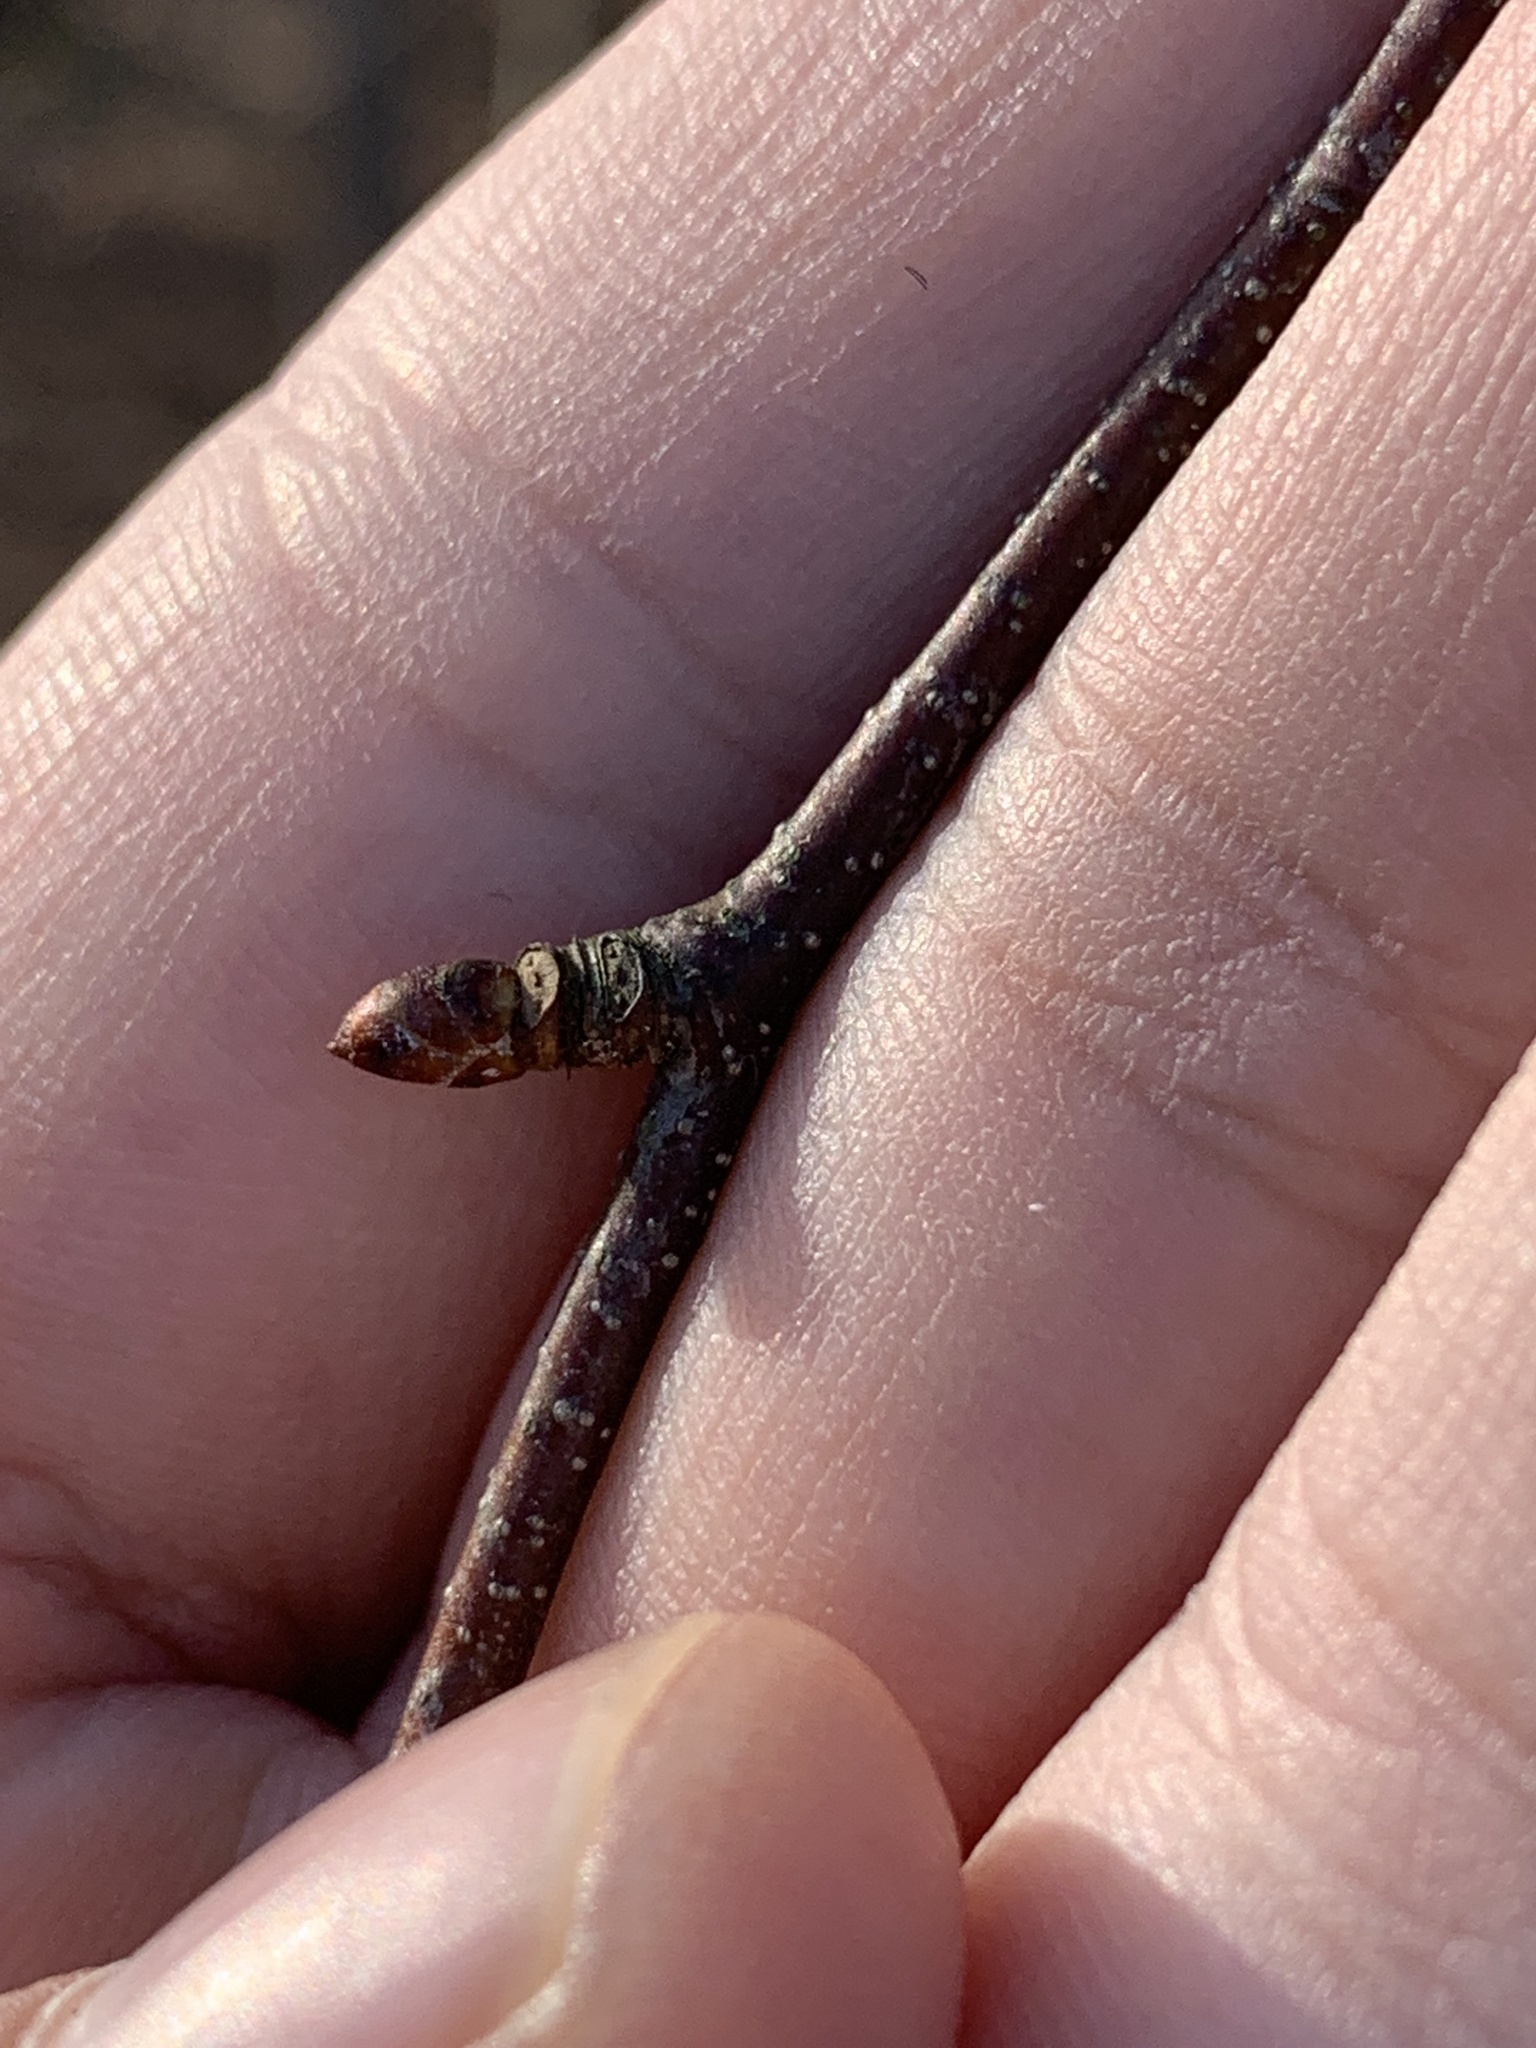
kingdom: Plantae
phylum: Tracheophyta
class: Magnoliopsida
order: Fagales
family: Betulaceae
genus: Betula
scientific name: Betula lenta
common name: Black birch
